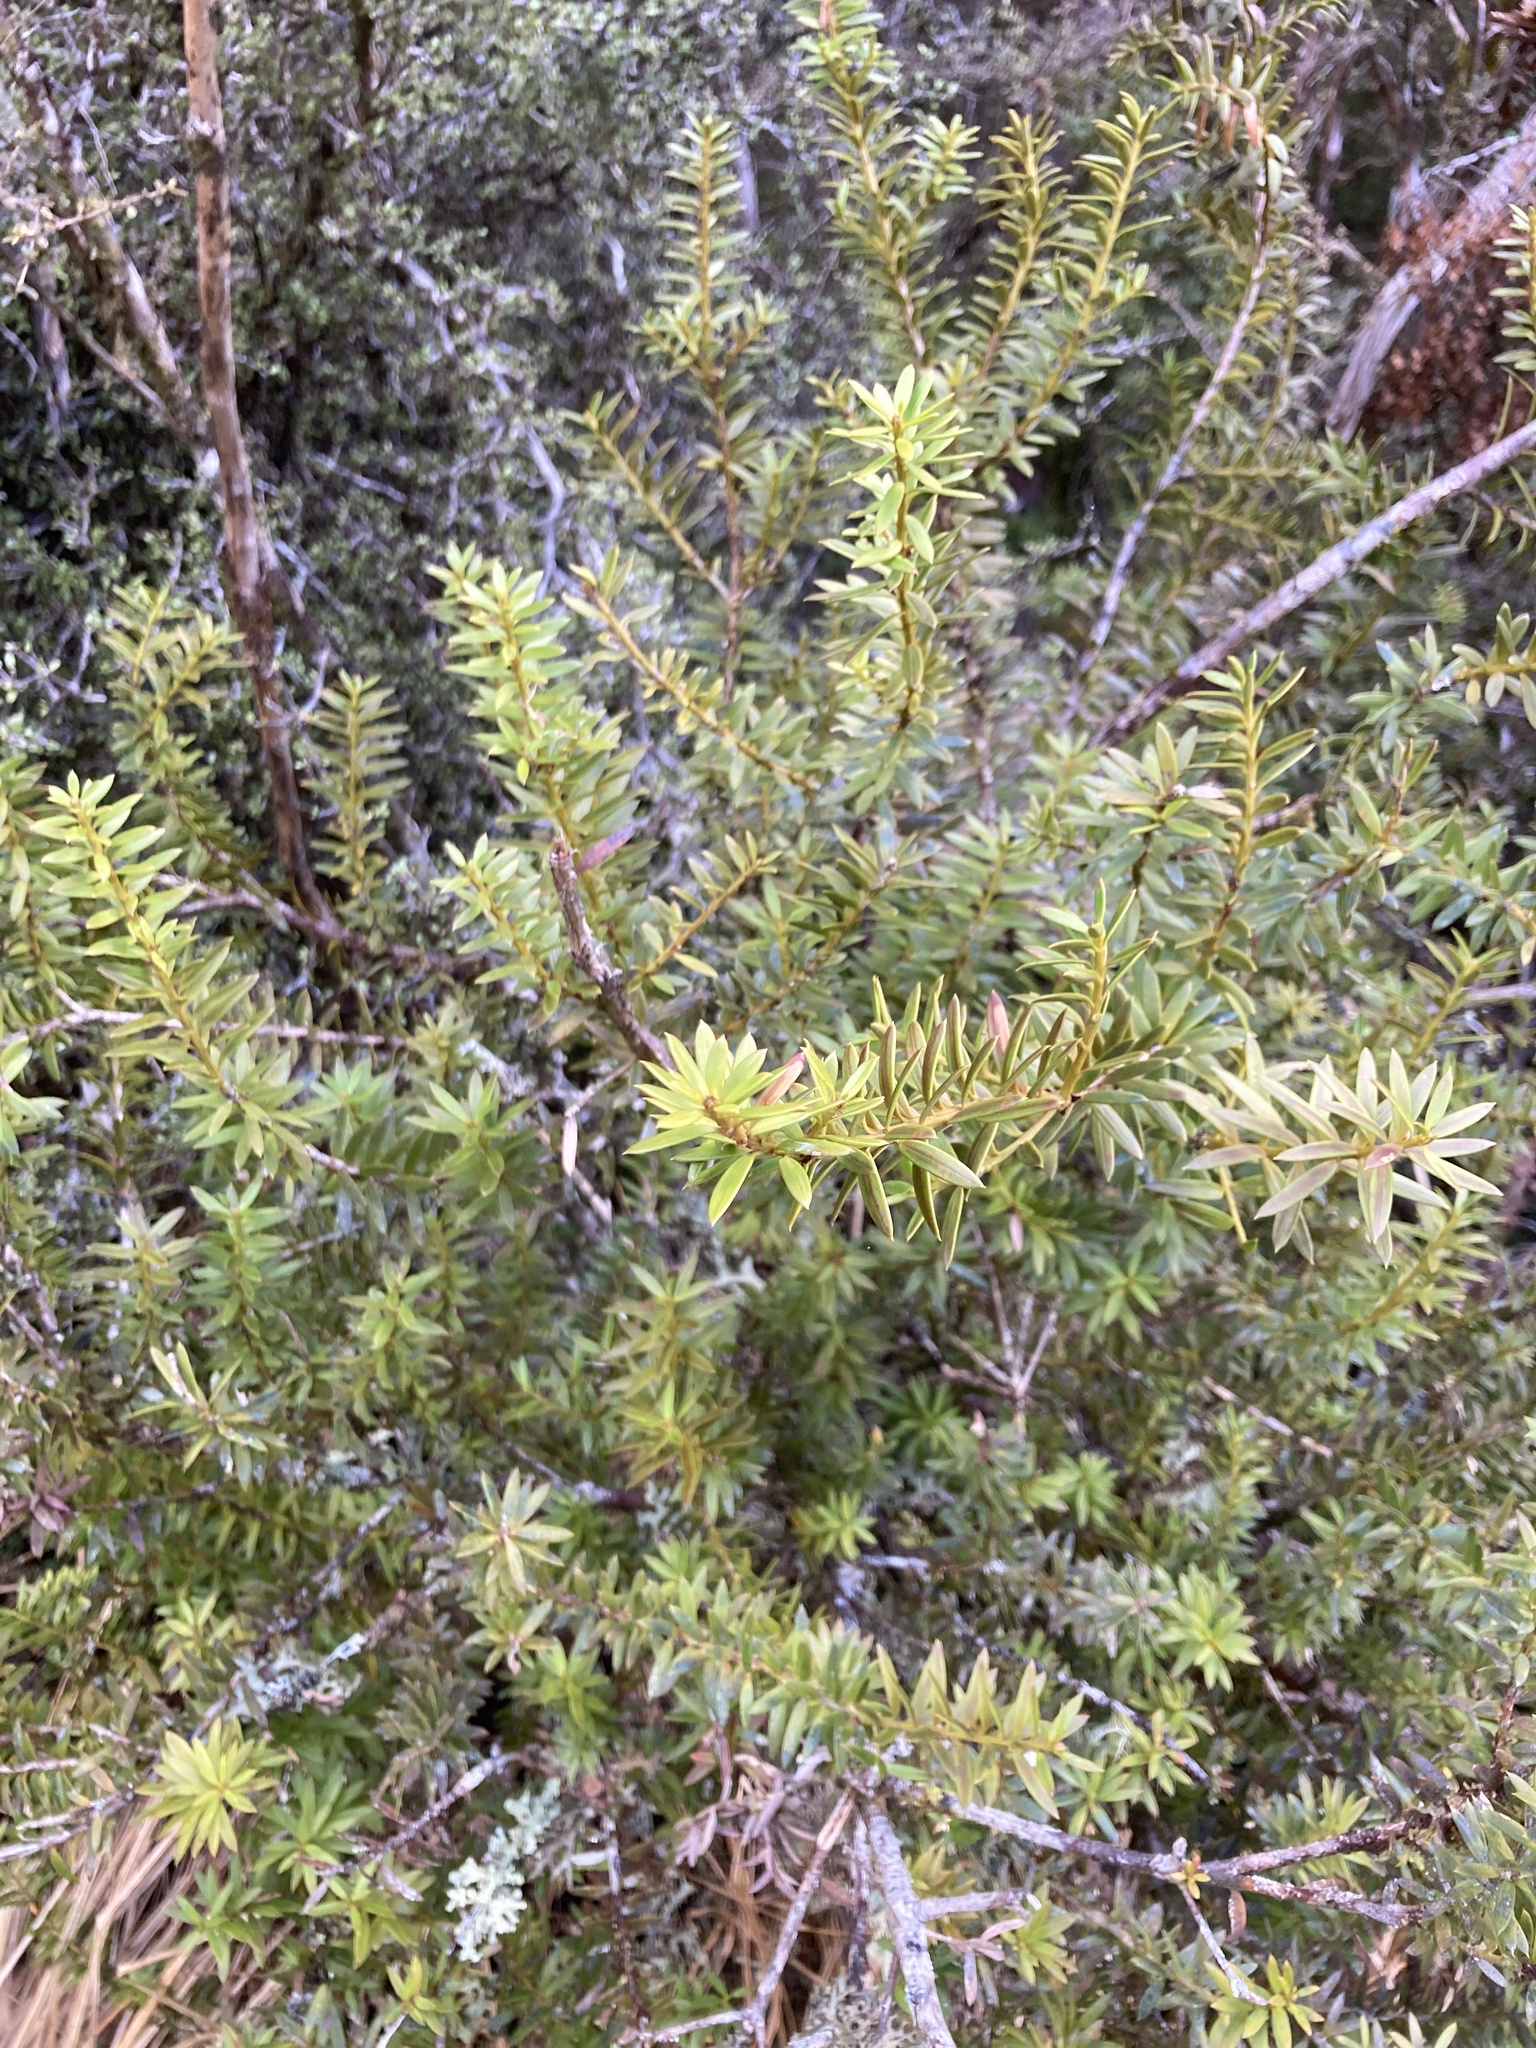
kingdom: Plantae
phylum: Tracheophyta
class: Pinopsida
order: Pinales
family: Podocarpaceae
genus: Podocarpus
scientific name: Podocarpus totara
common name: Totara
